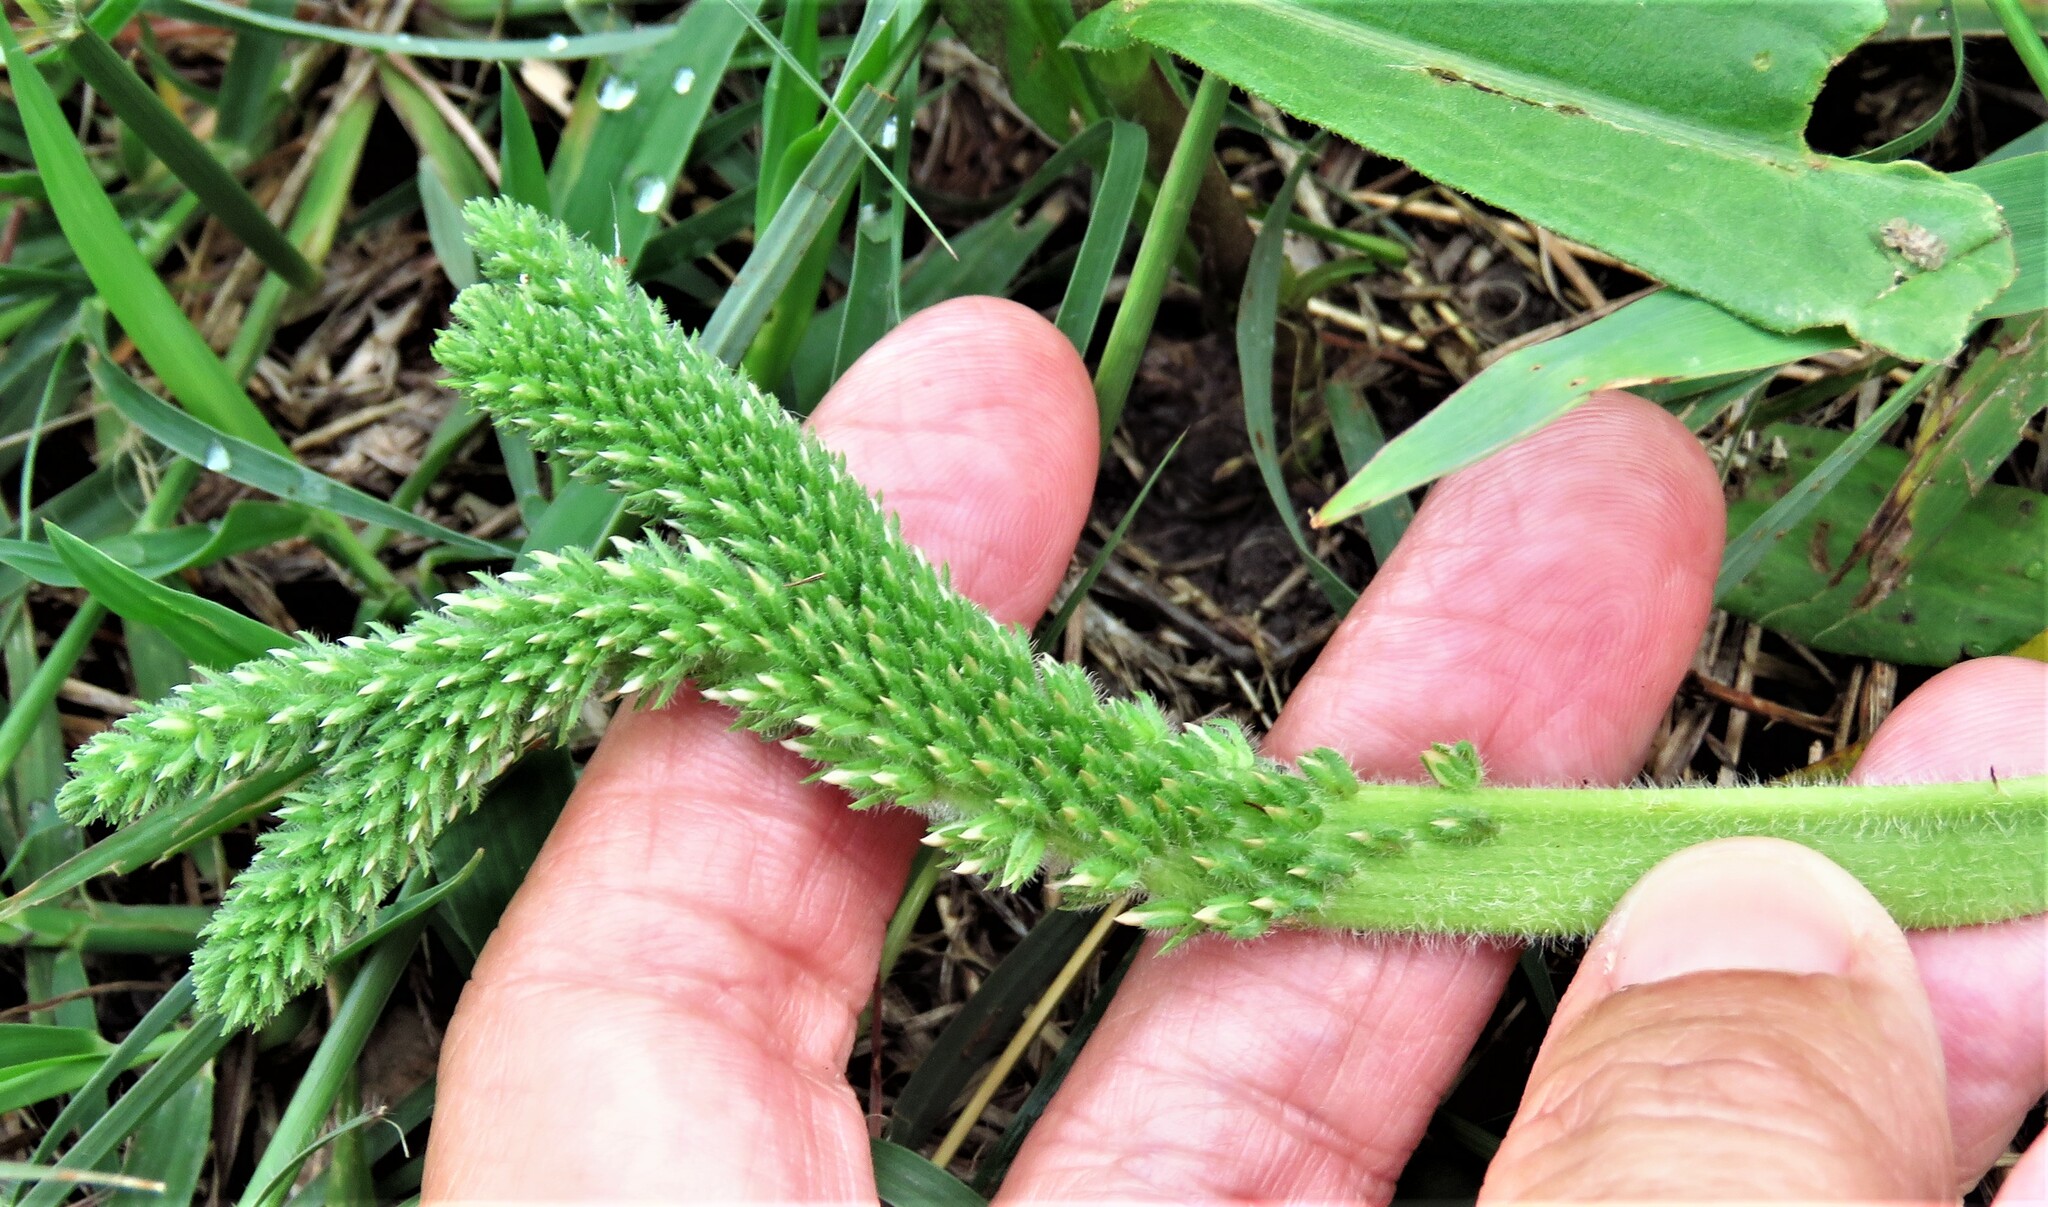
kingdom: Plantae
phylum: Tracheophyta
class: Magnoliopsida
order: Lamiales
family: Plantaginaceae
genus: Plantago
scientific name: Plantago rhodosperma
